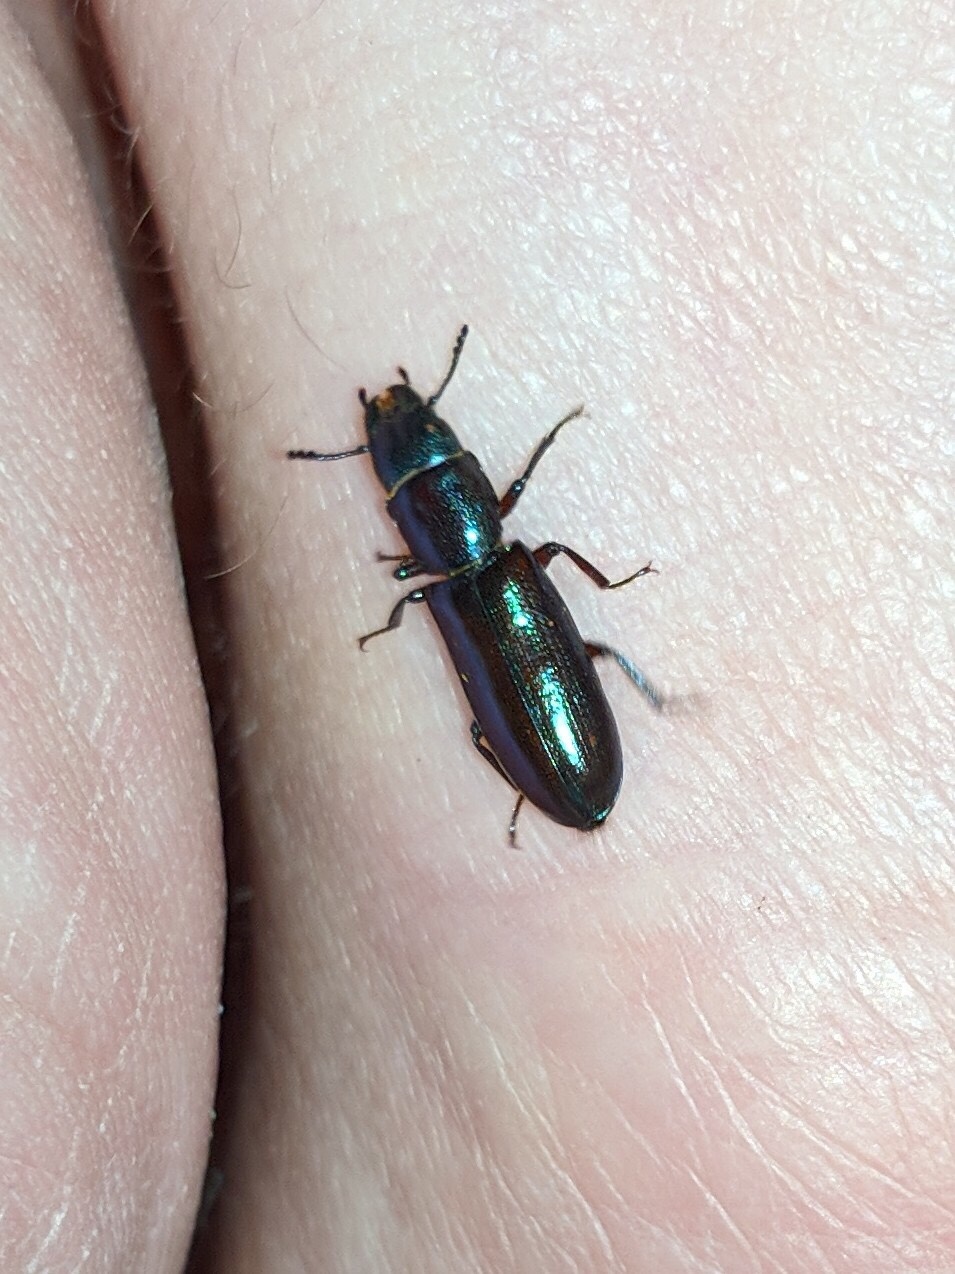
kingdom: Animalia
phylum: Arthropoda
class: Insecta
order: Coleoptera
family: Trogossitidae
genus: Temnoscheila
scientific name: Temnoscheila chlorodia
